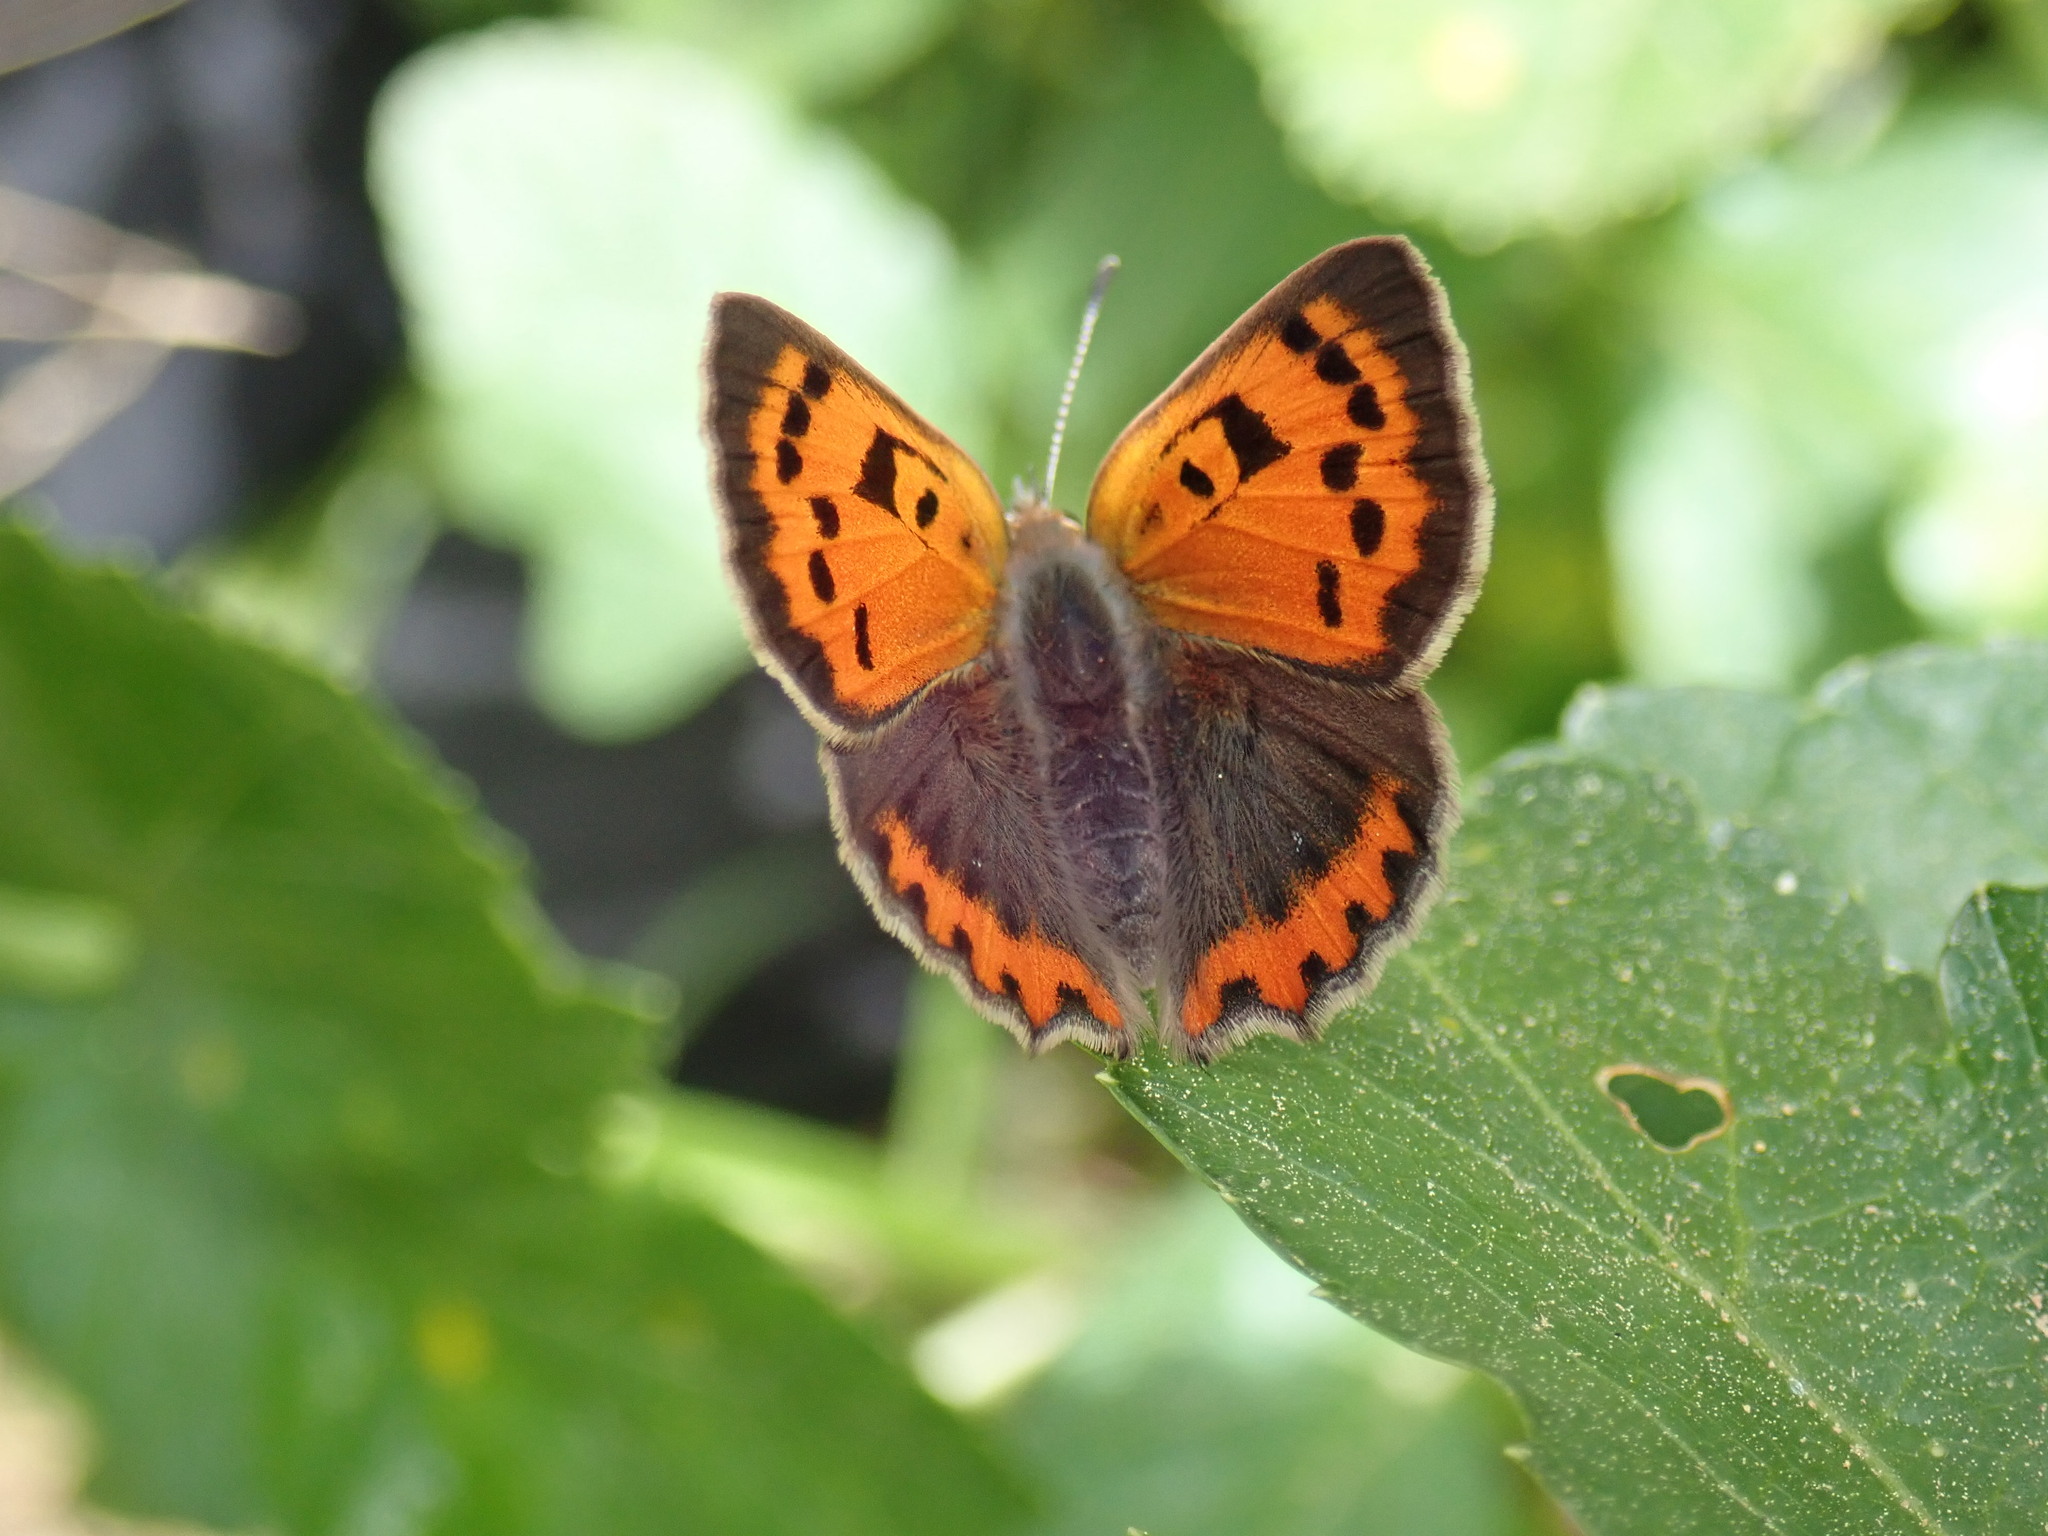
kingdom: Animalia
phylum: Arthropoda
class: Insecta
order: Lepidoptera
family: Lycaenidae
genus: Lycaena
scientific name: Lycaena phlaeas
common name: Small copper
